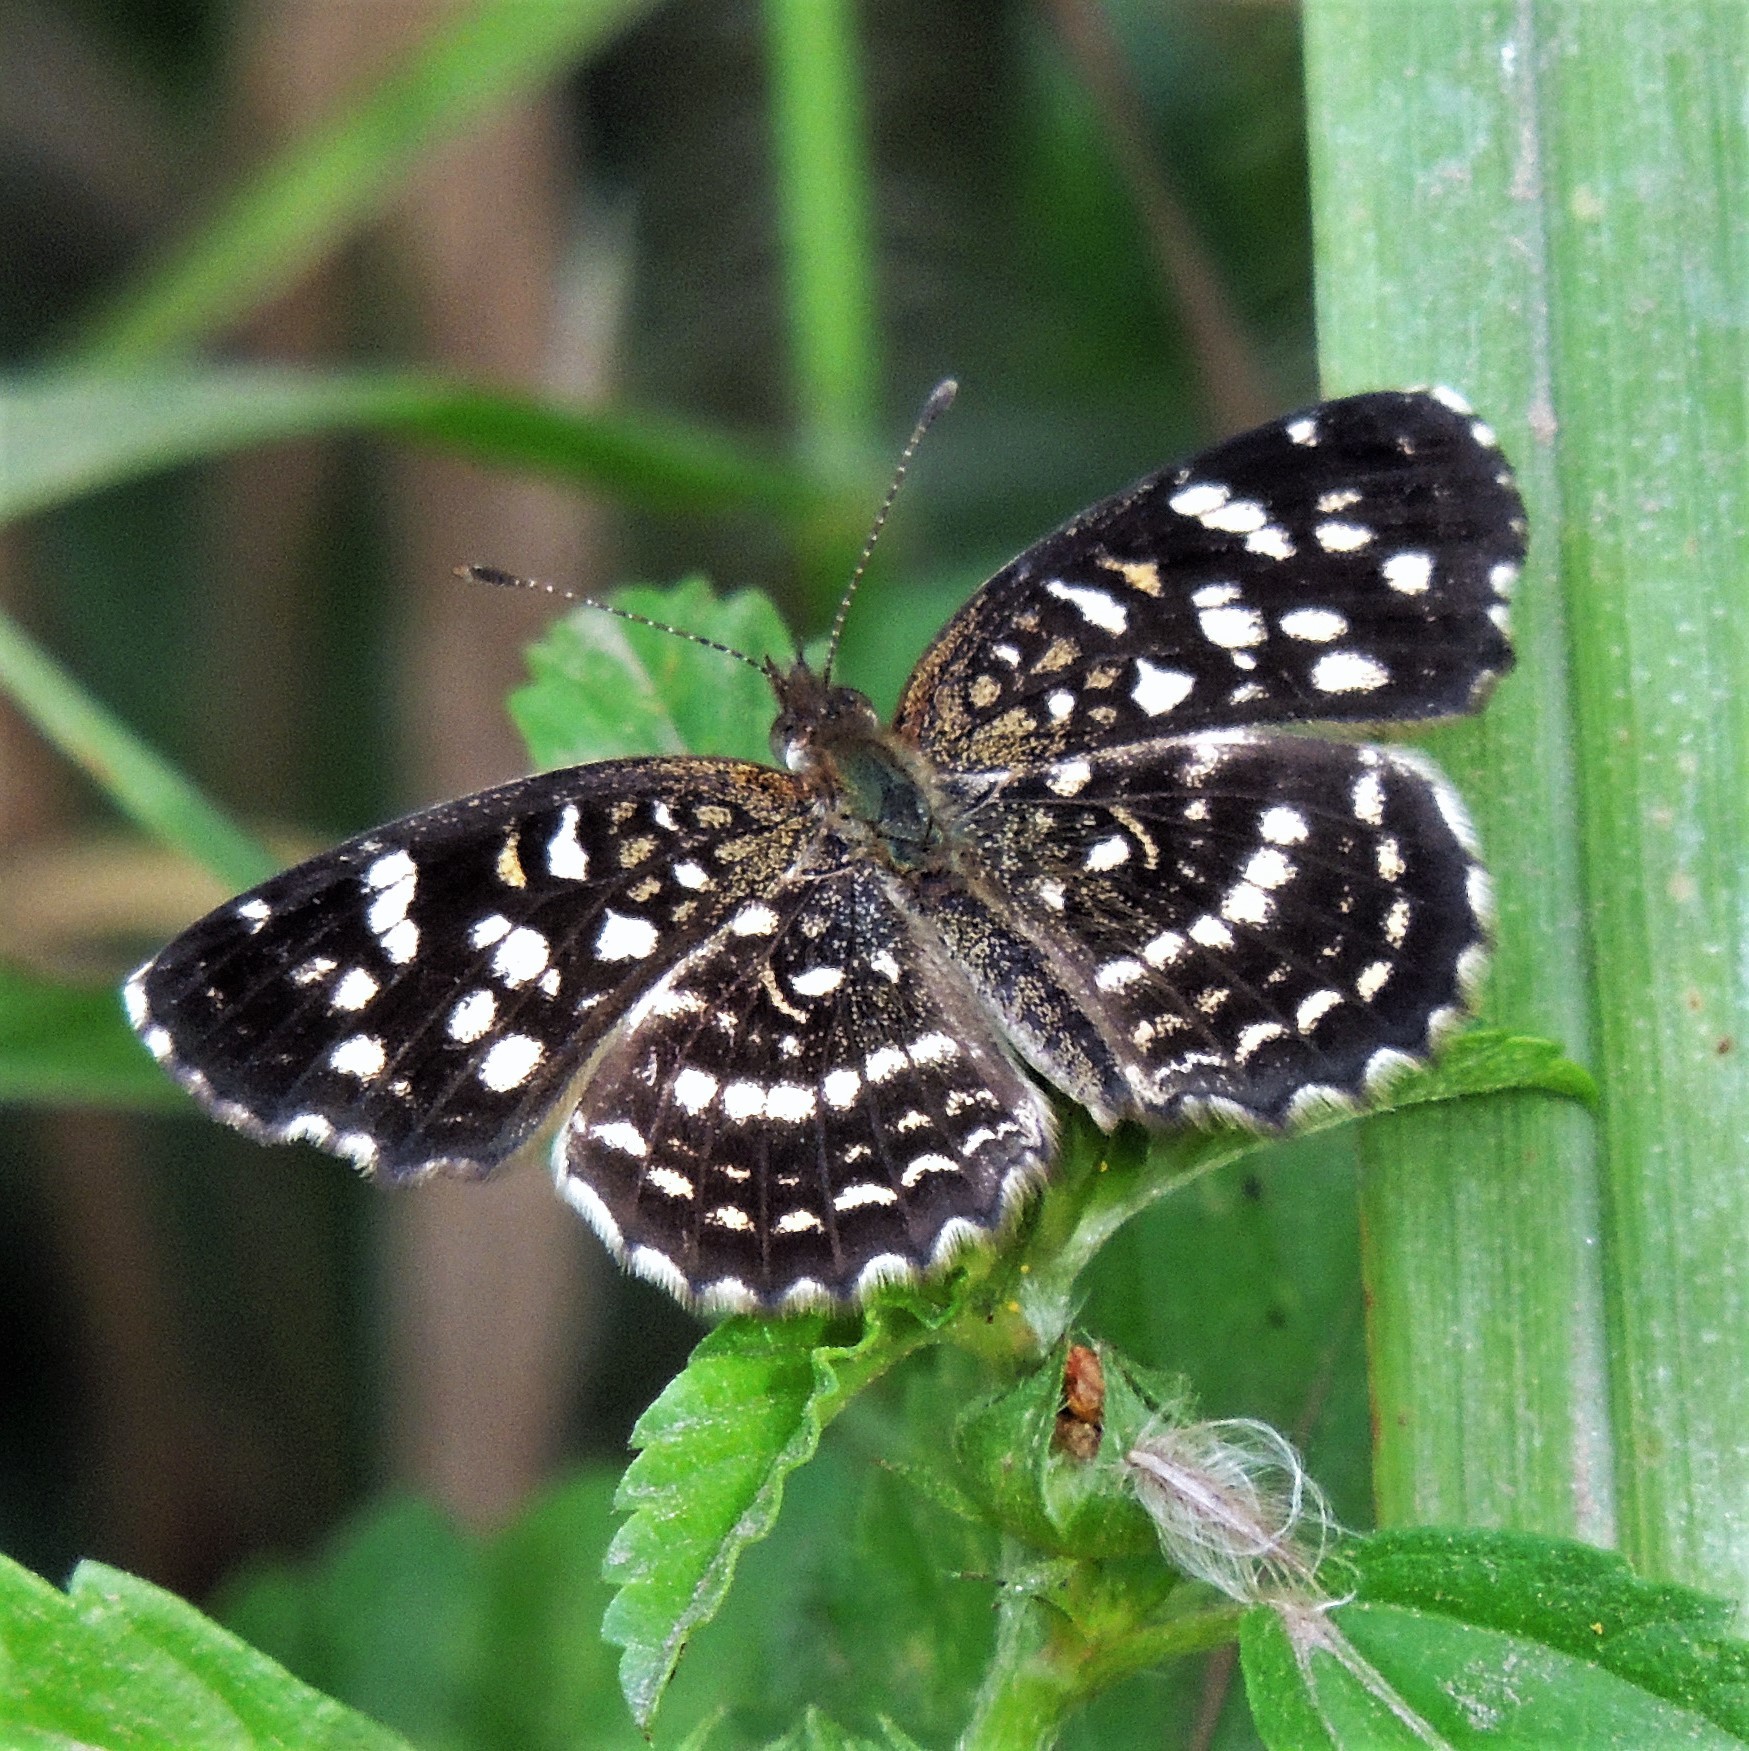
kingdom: Animalia
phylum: Arthropoda
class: Insecta
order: Lepidoptera
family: Nymphalidae
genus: Anthanassa
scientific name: Anthanassa hermas
